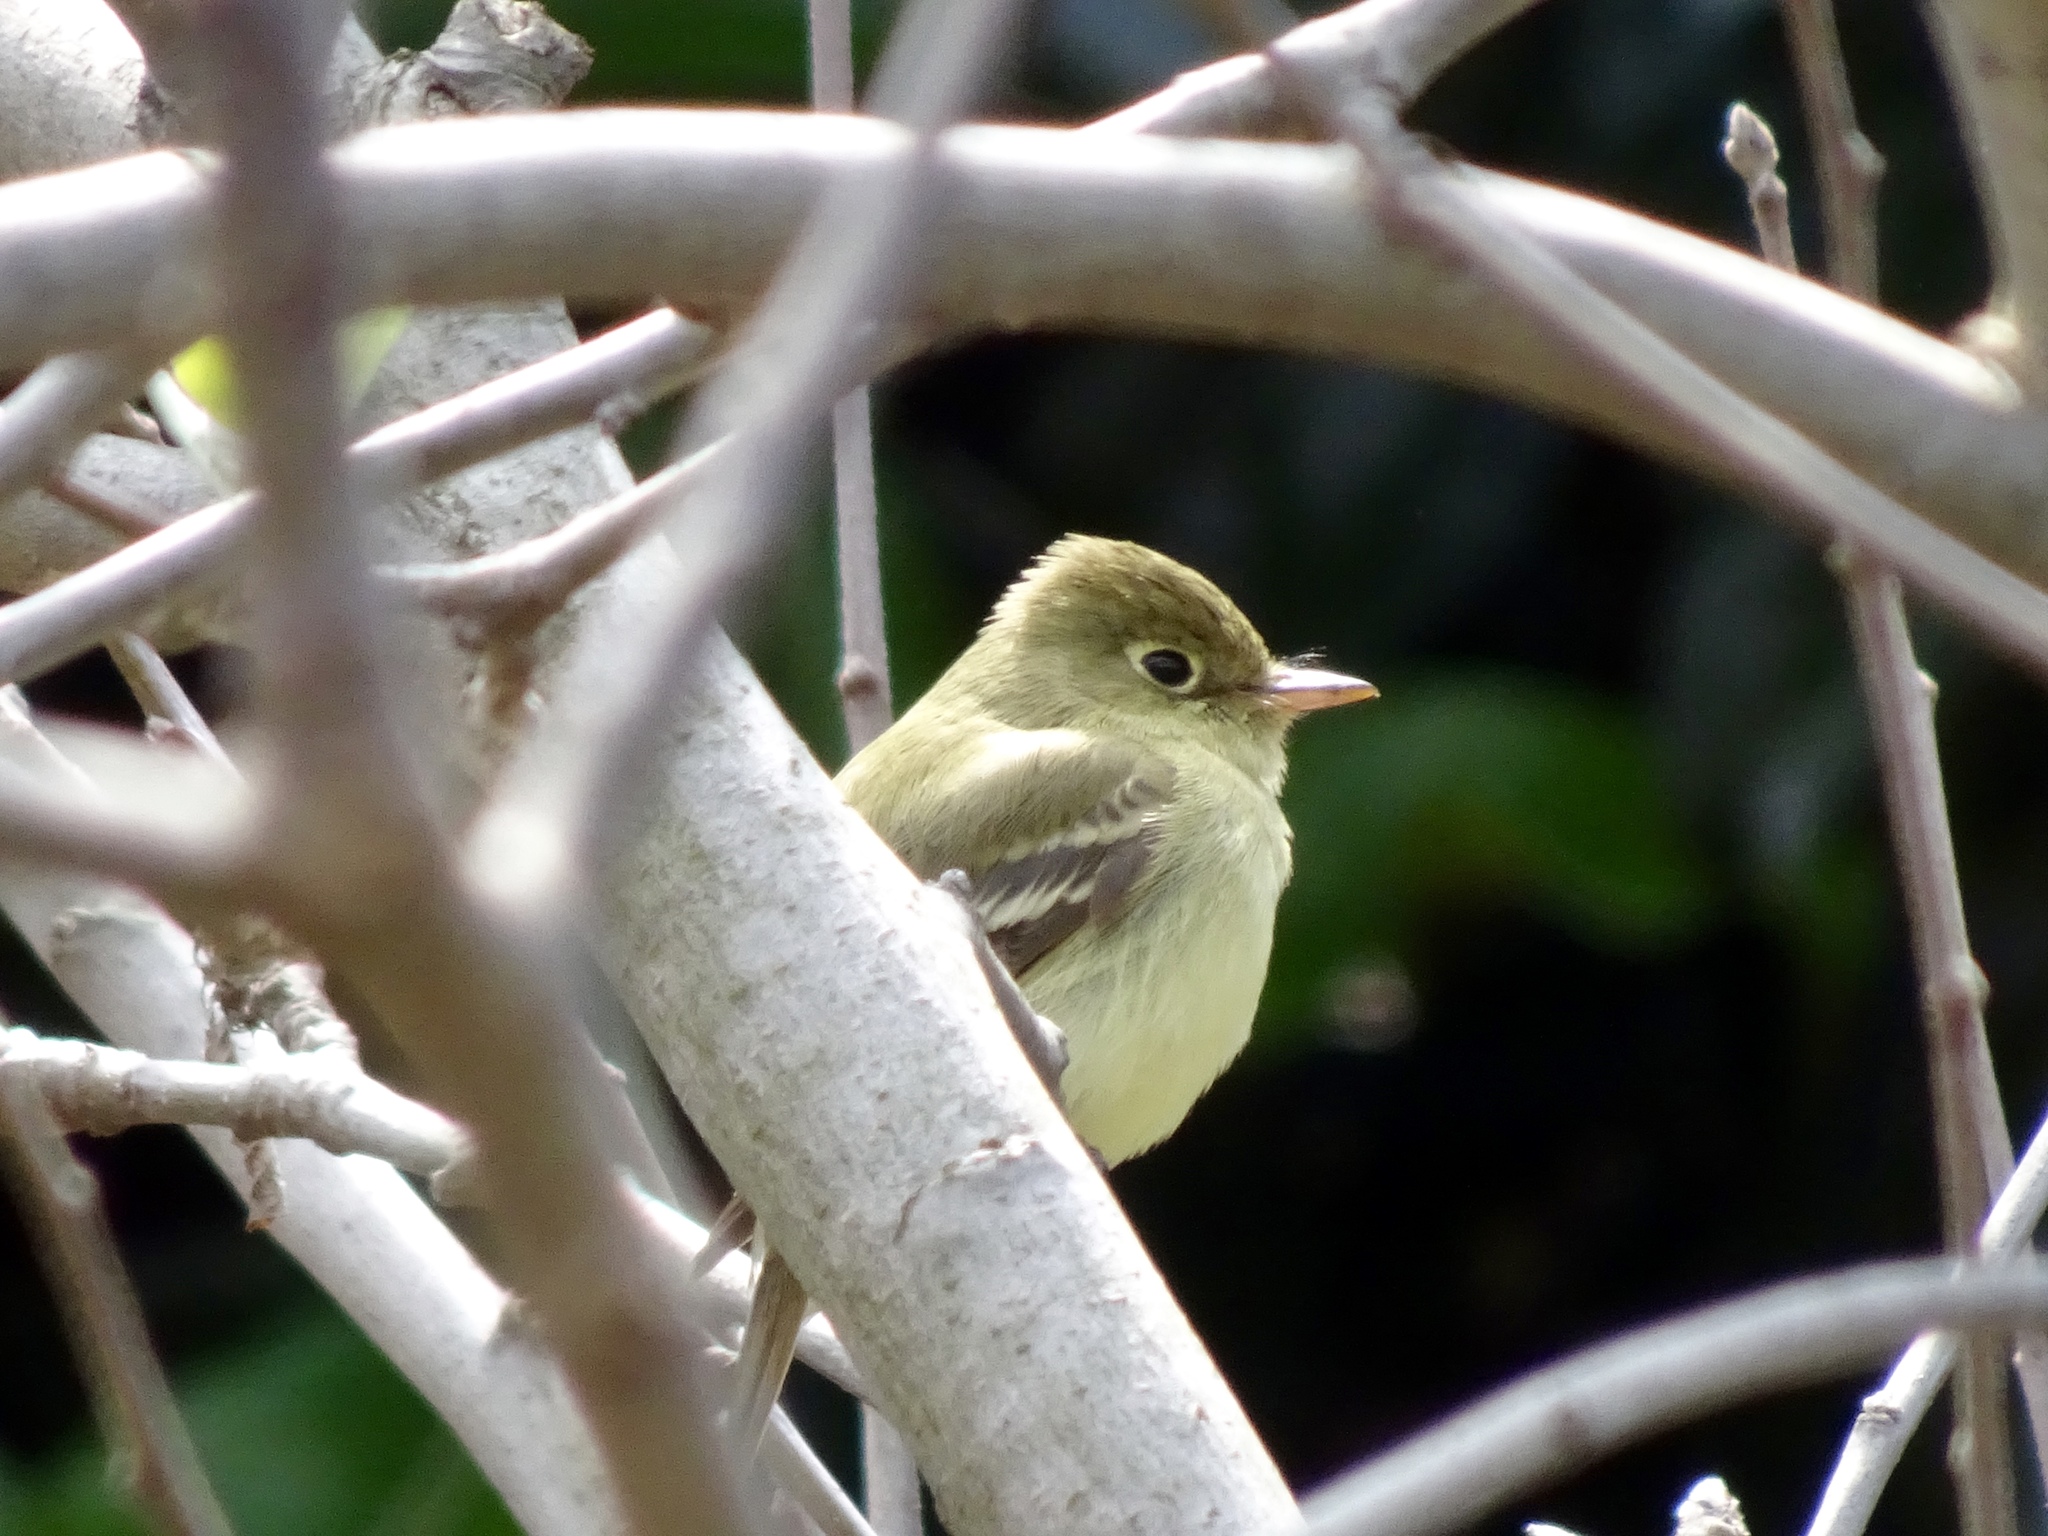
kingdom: Animalia
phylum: Chordata
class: Aves
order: Passeriformes
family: Tyrannidae
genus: Empidonax
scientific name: Empidonax difficilis
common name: Pacific-slope flycatcher
